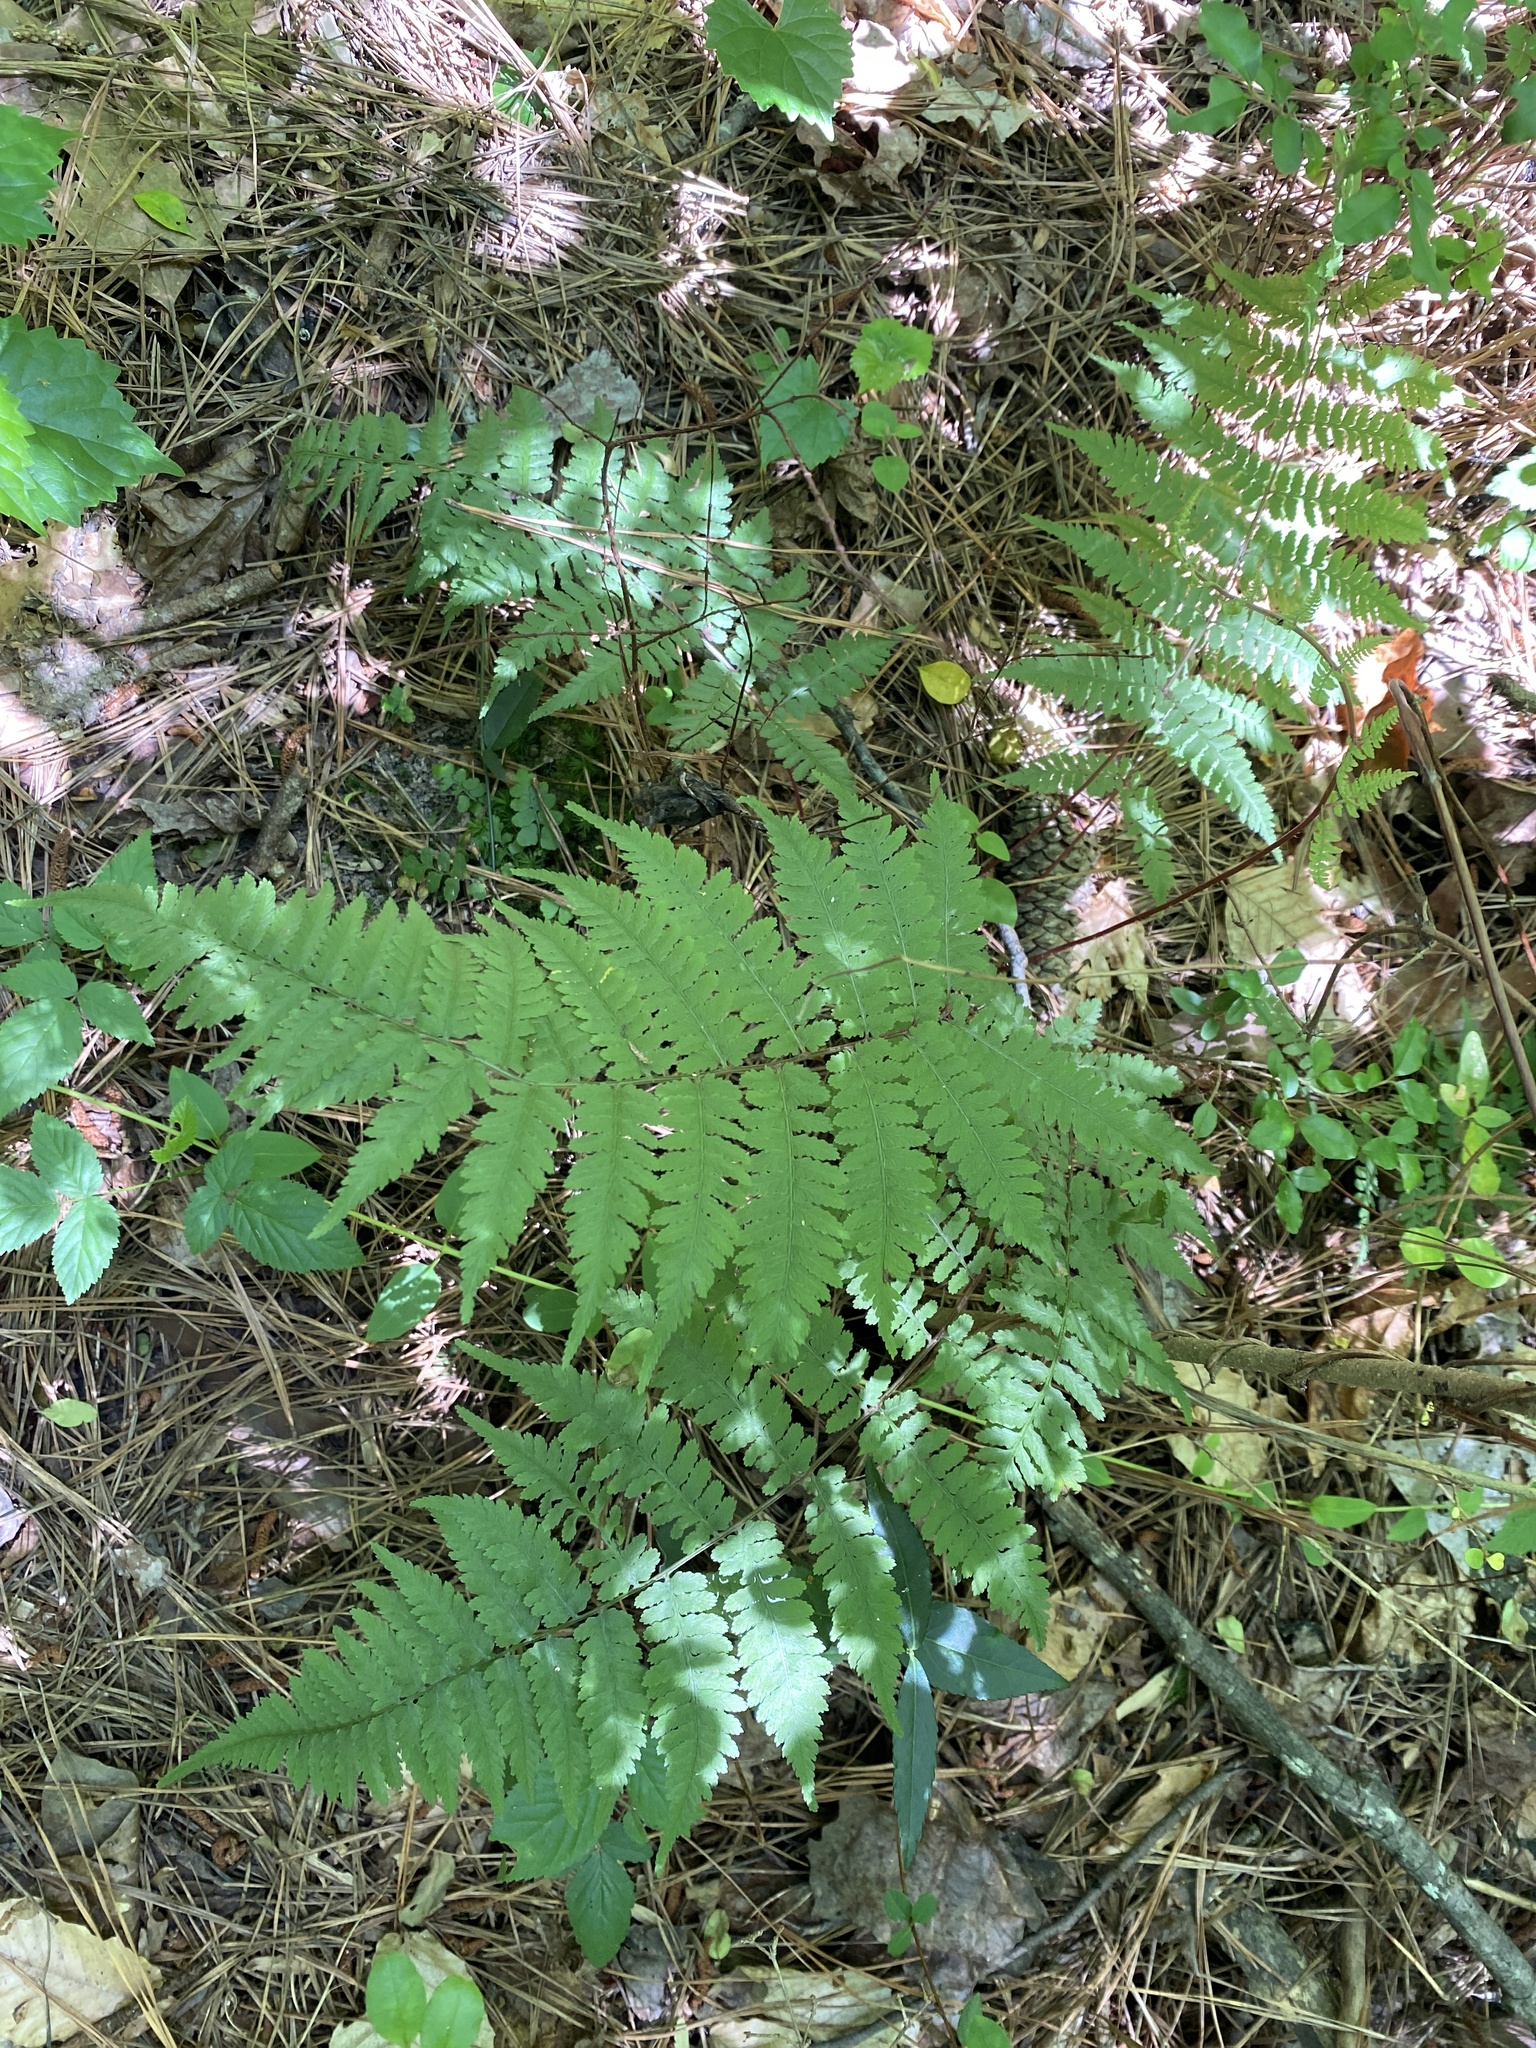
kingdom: Plantae
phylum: Tracheophyta
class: Polypodiopsida
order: Polypodiales
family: Athyriaceae
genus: Athyrium
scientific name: Athyrium asplenioides
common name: Southern lady fern
